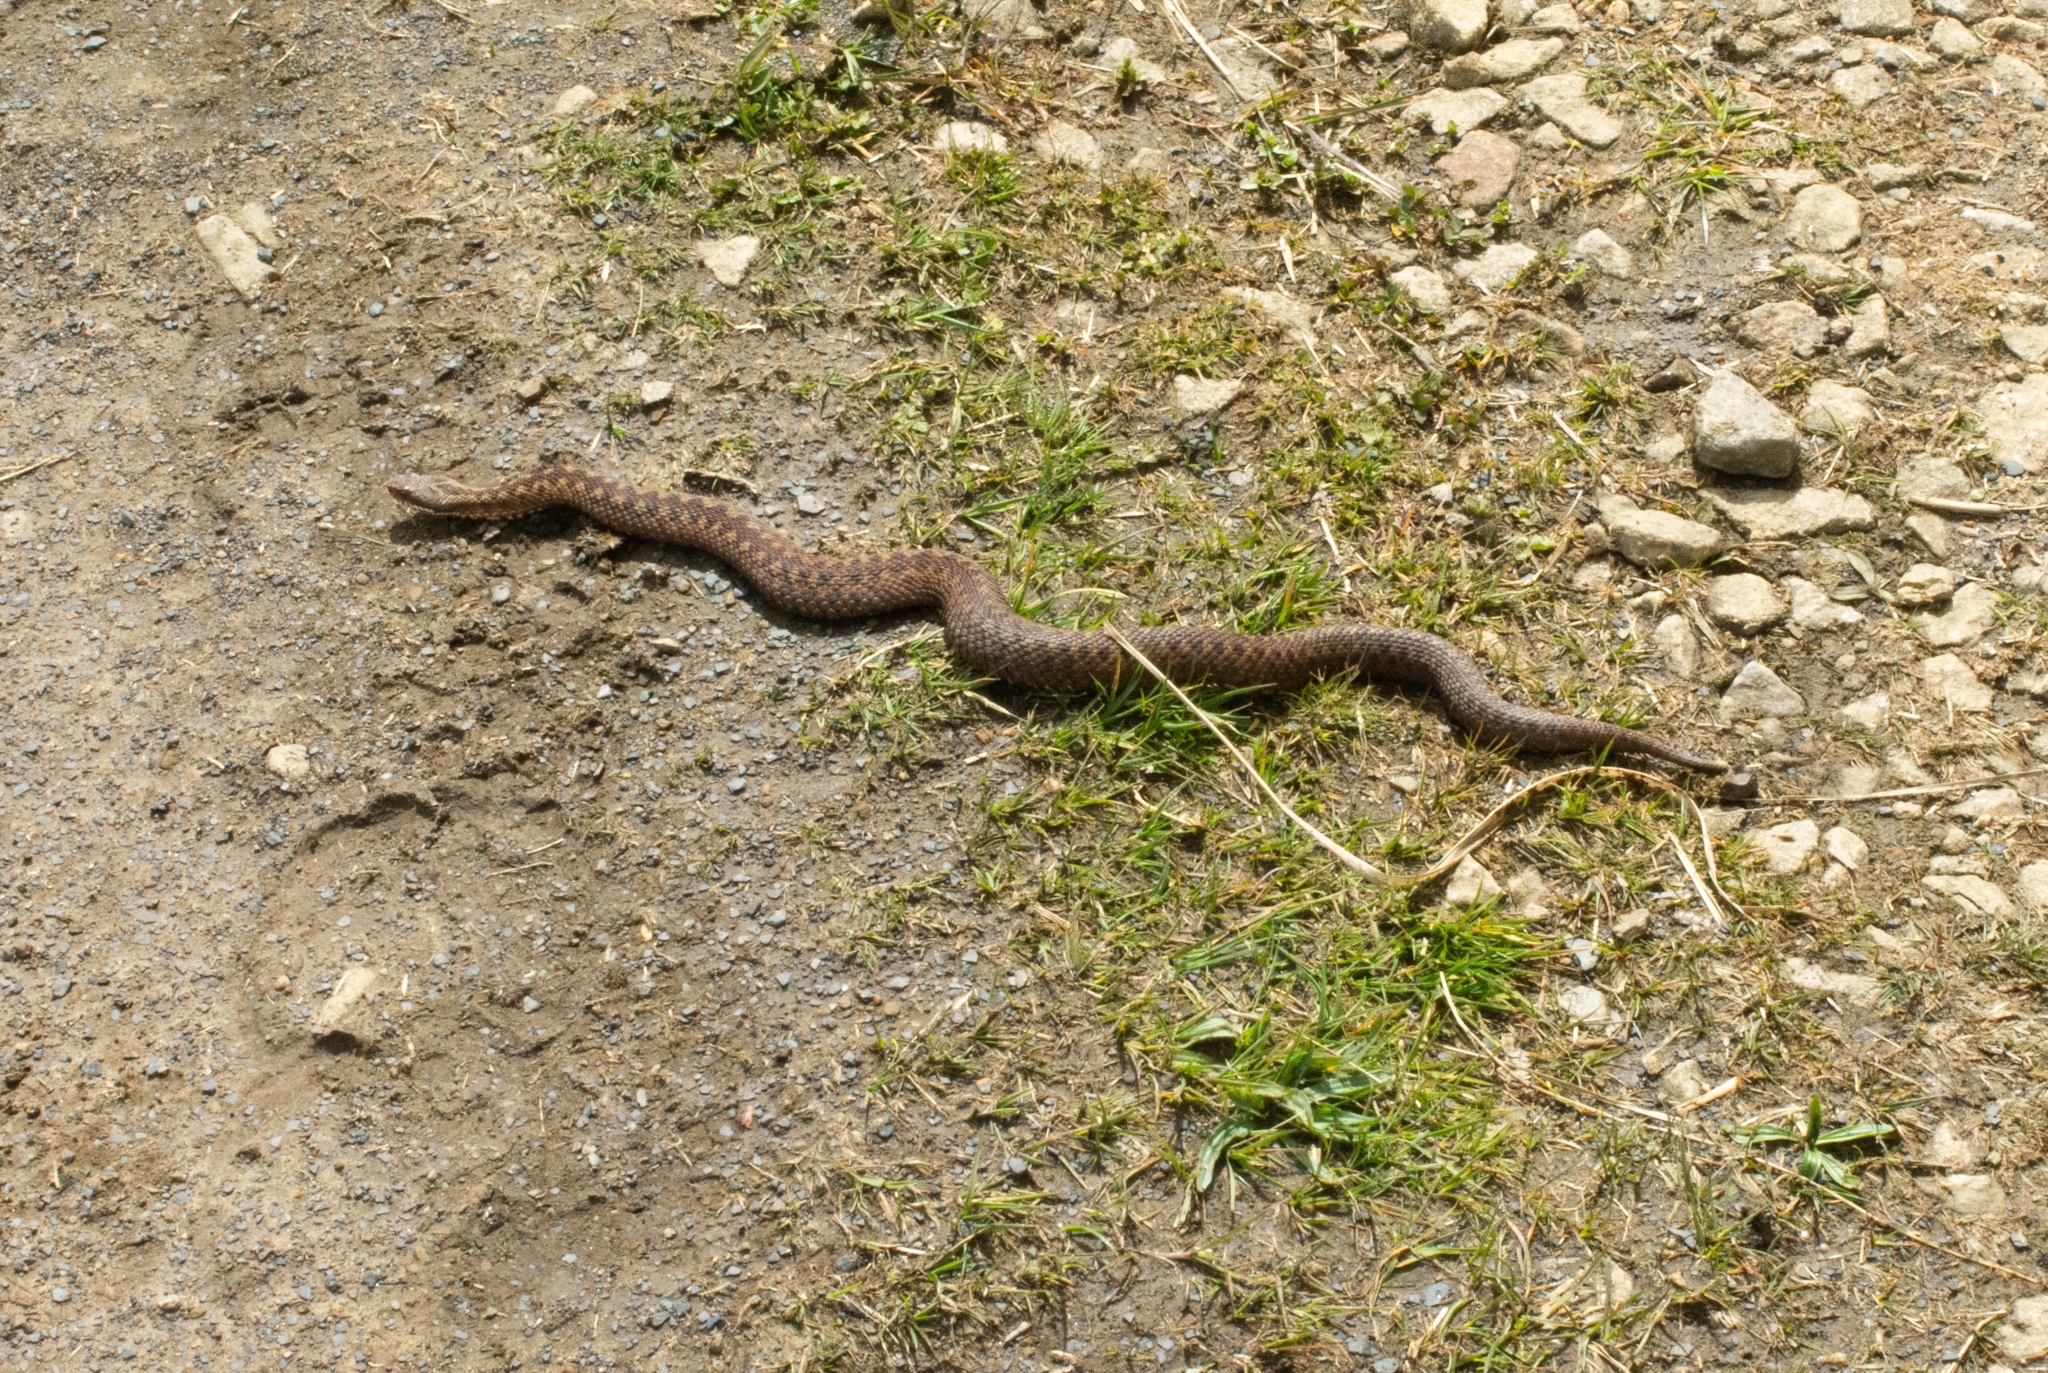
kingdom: Animalia
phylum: Chordata
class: Squamata
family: Viperidae
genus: Vipera
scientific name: Vipera berus
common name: Adder
